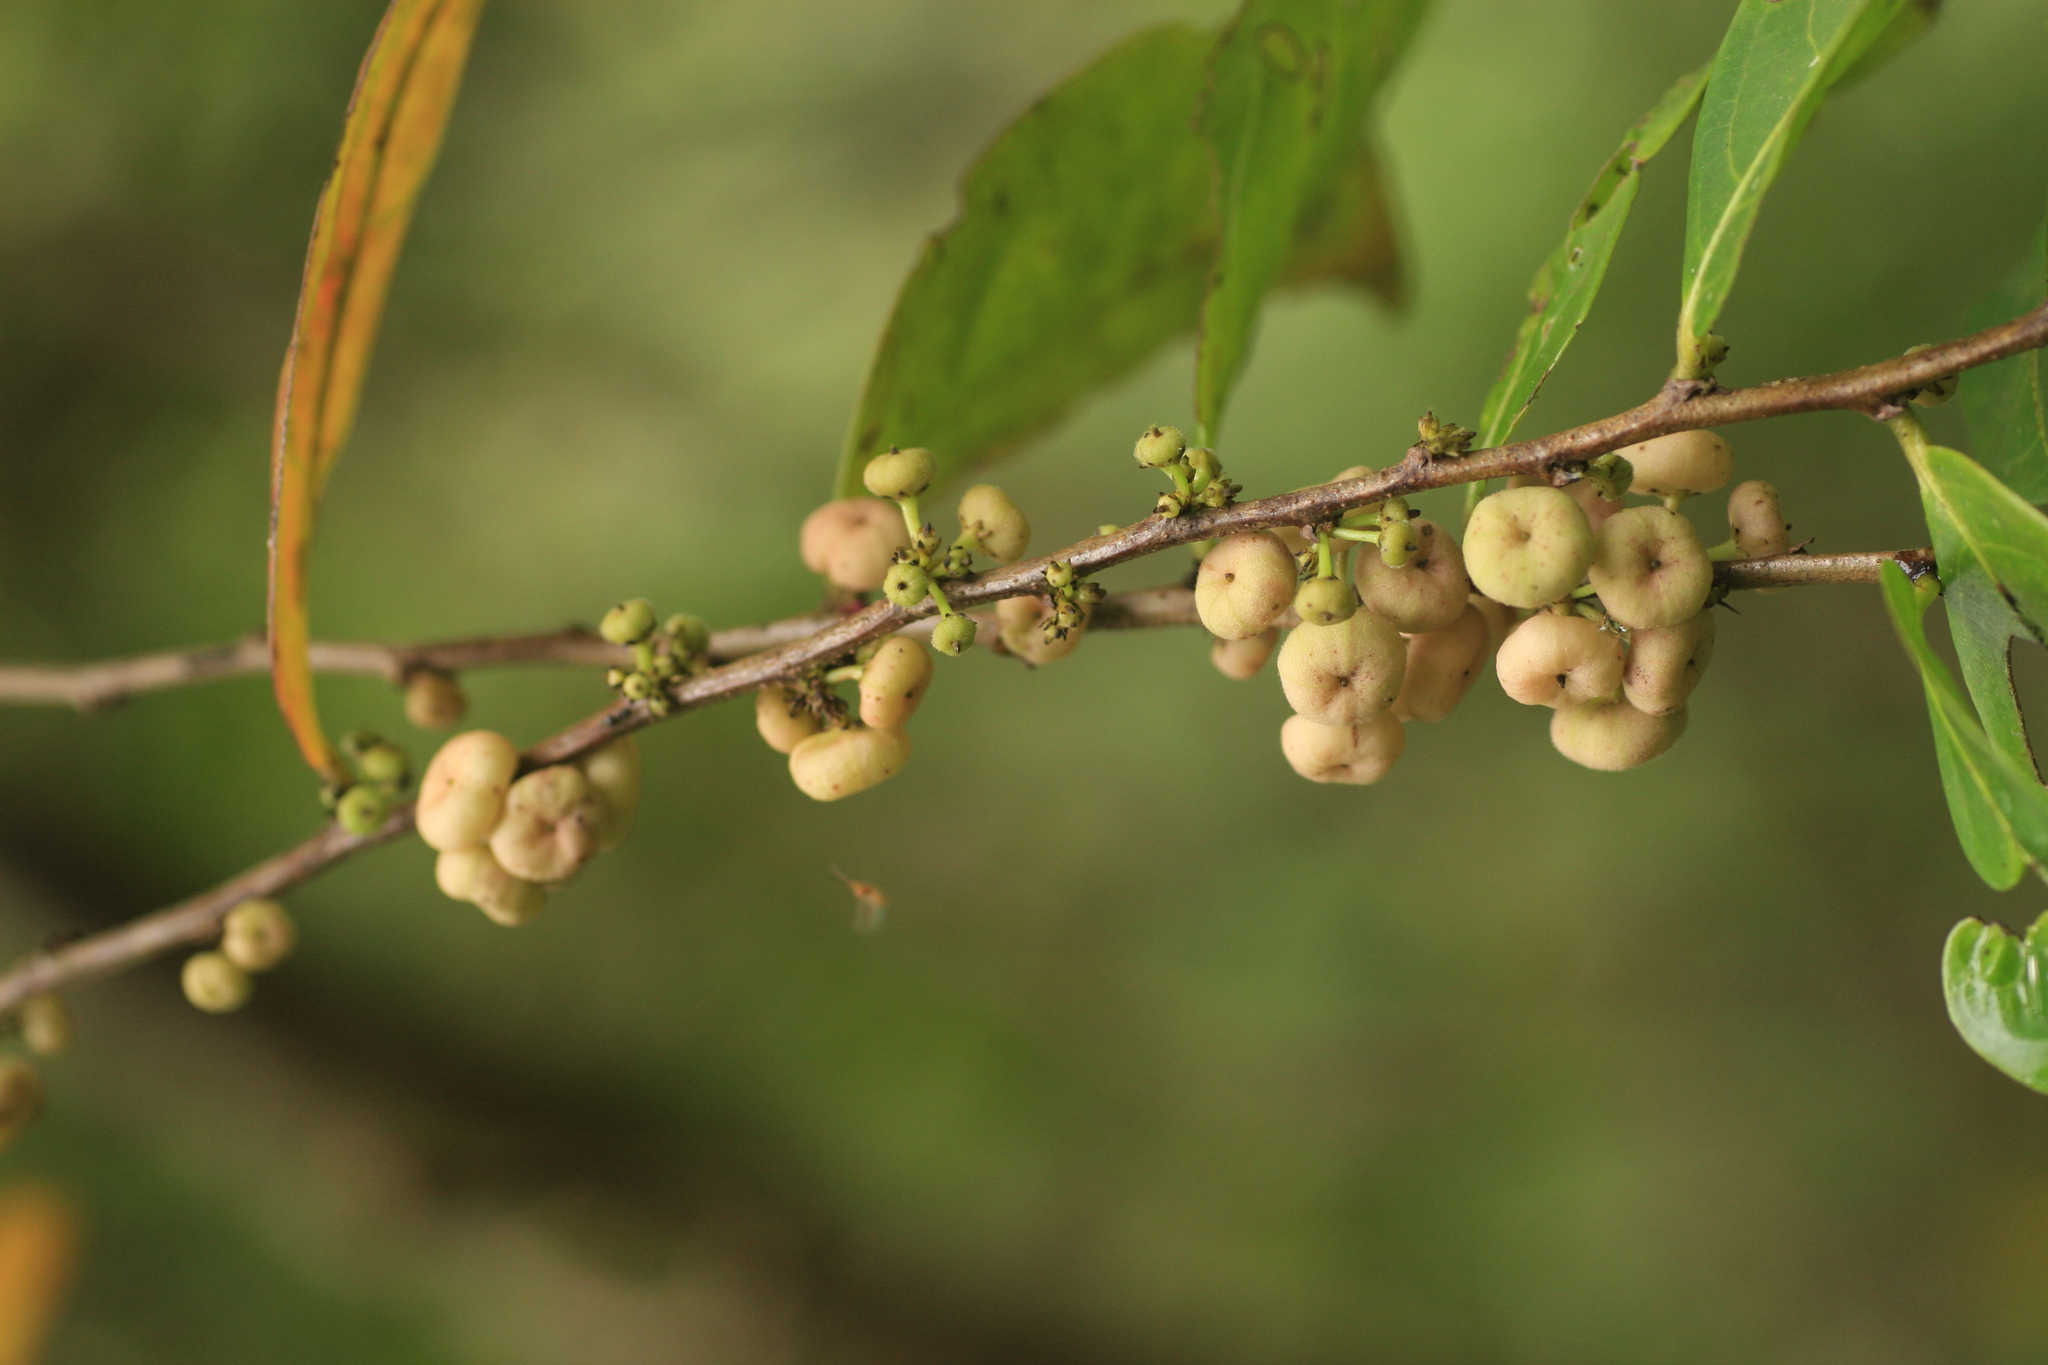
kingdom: Plantae
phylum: Tracheophyta
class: Magnoliopsida
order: Malpighiales
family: Phyllanthaceae
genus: Glochidion
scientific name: Glochidion ellipticum
